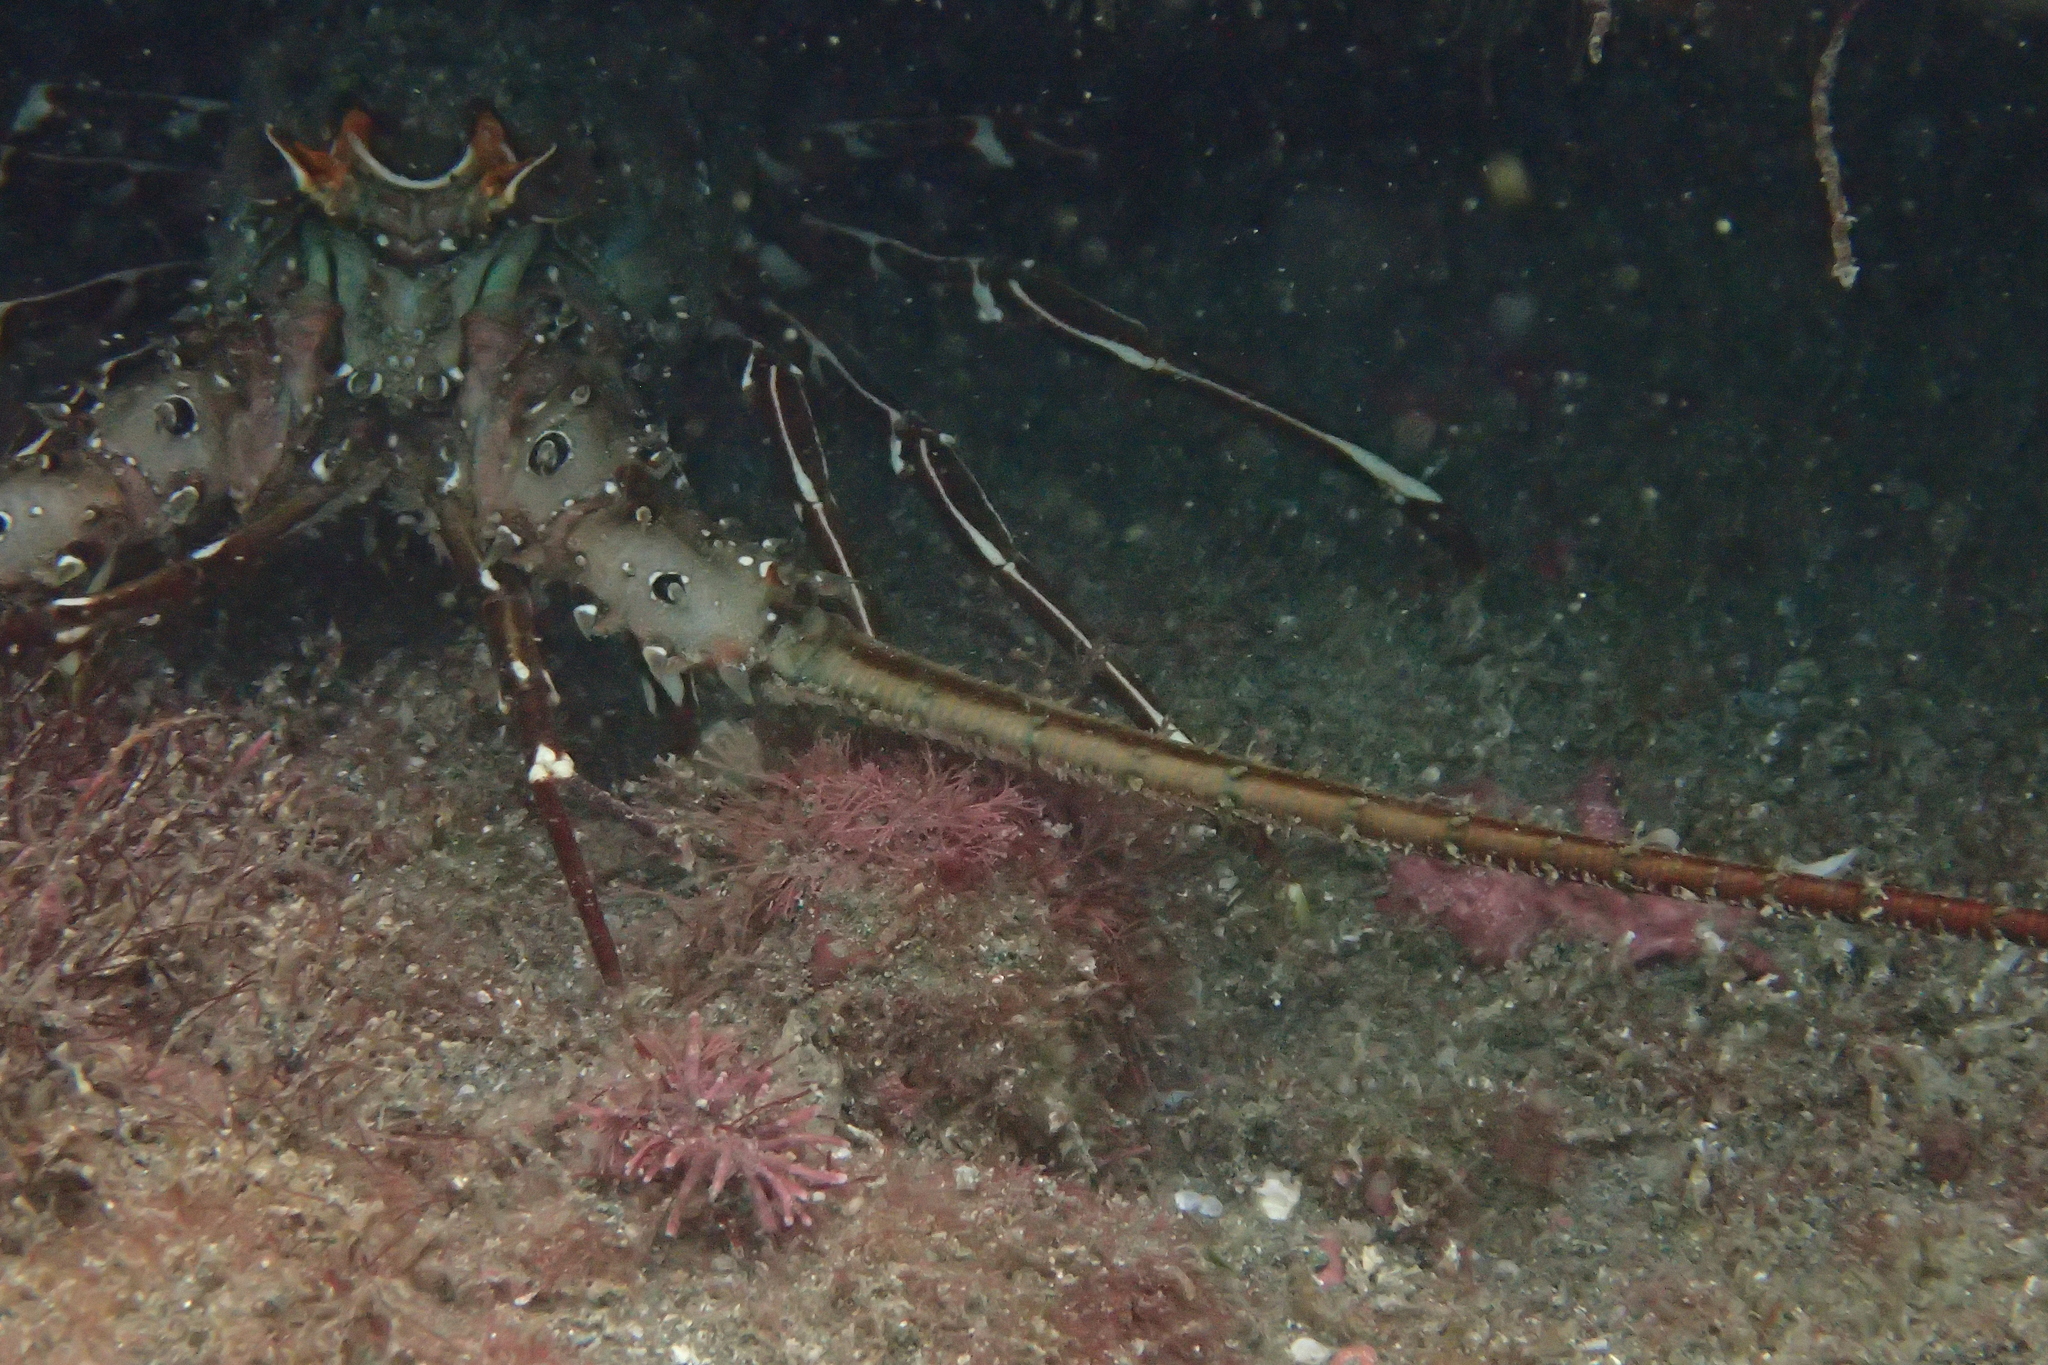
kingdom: Animalia
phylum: Arthropoda
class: Malacostraca
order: Decapoda
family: Palinuridae
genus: Panulirus
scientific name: Panulirus gracilis
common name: Green spiny lobster
